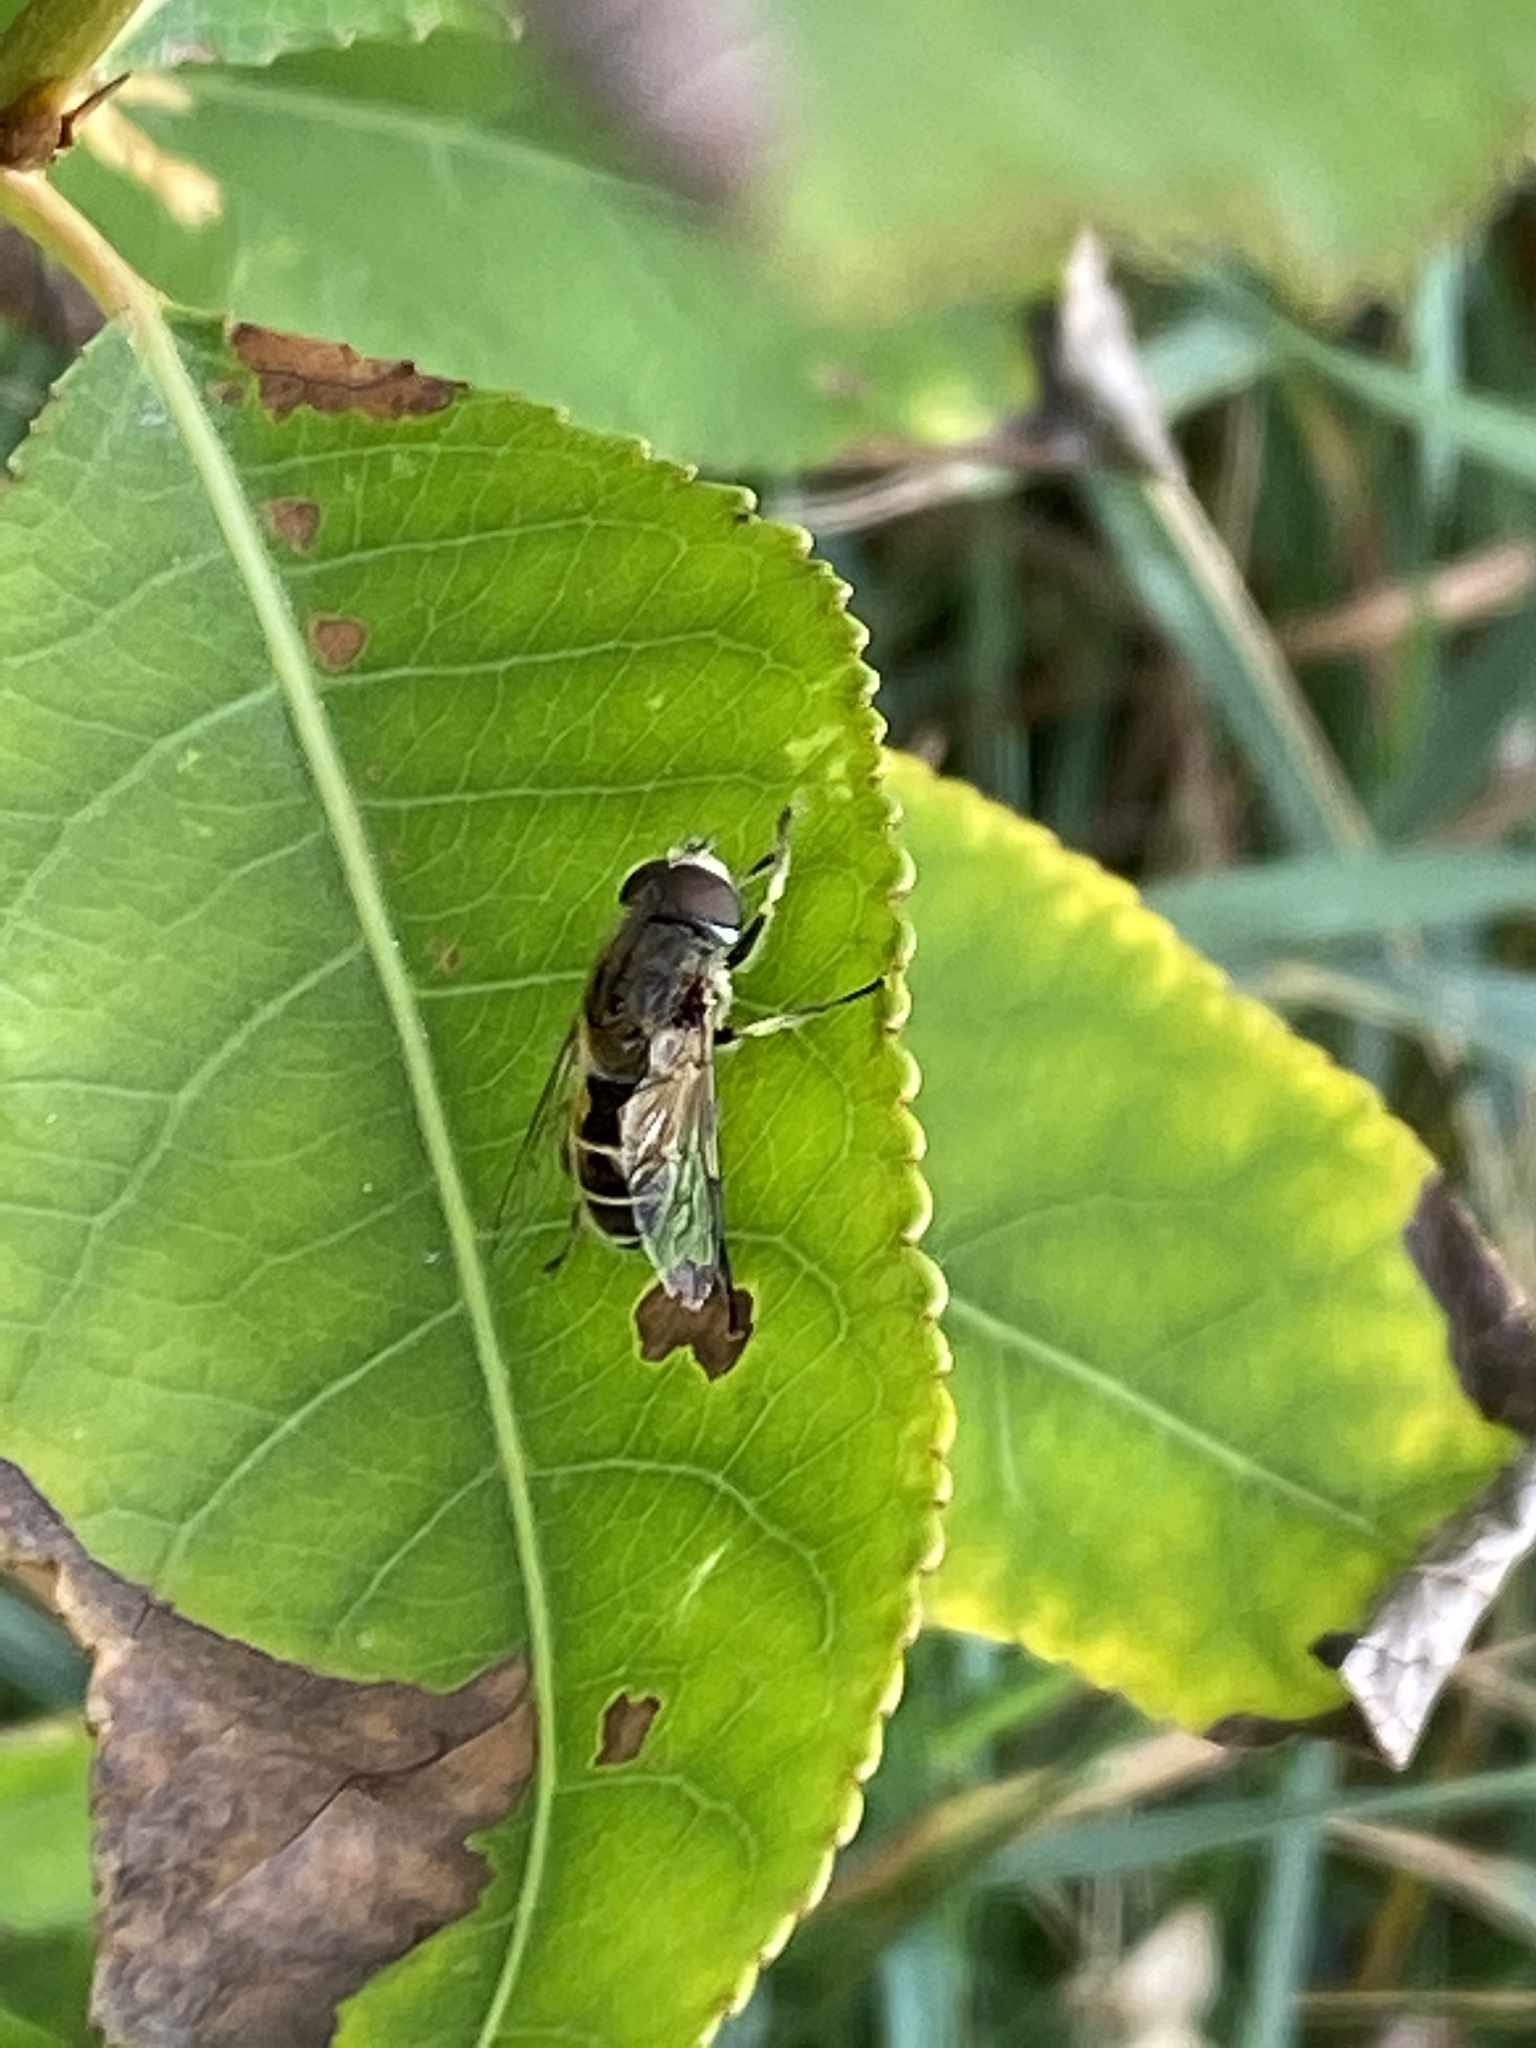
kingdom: Animalia
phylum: Arthropoda
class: Insecta
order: Diptera
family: Syrphidae
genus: Eristalis
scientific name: Eristalis arbustorum
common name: Hover fly
